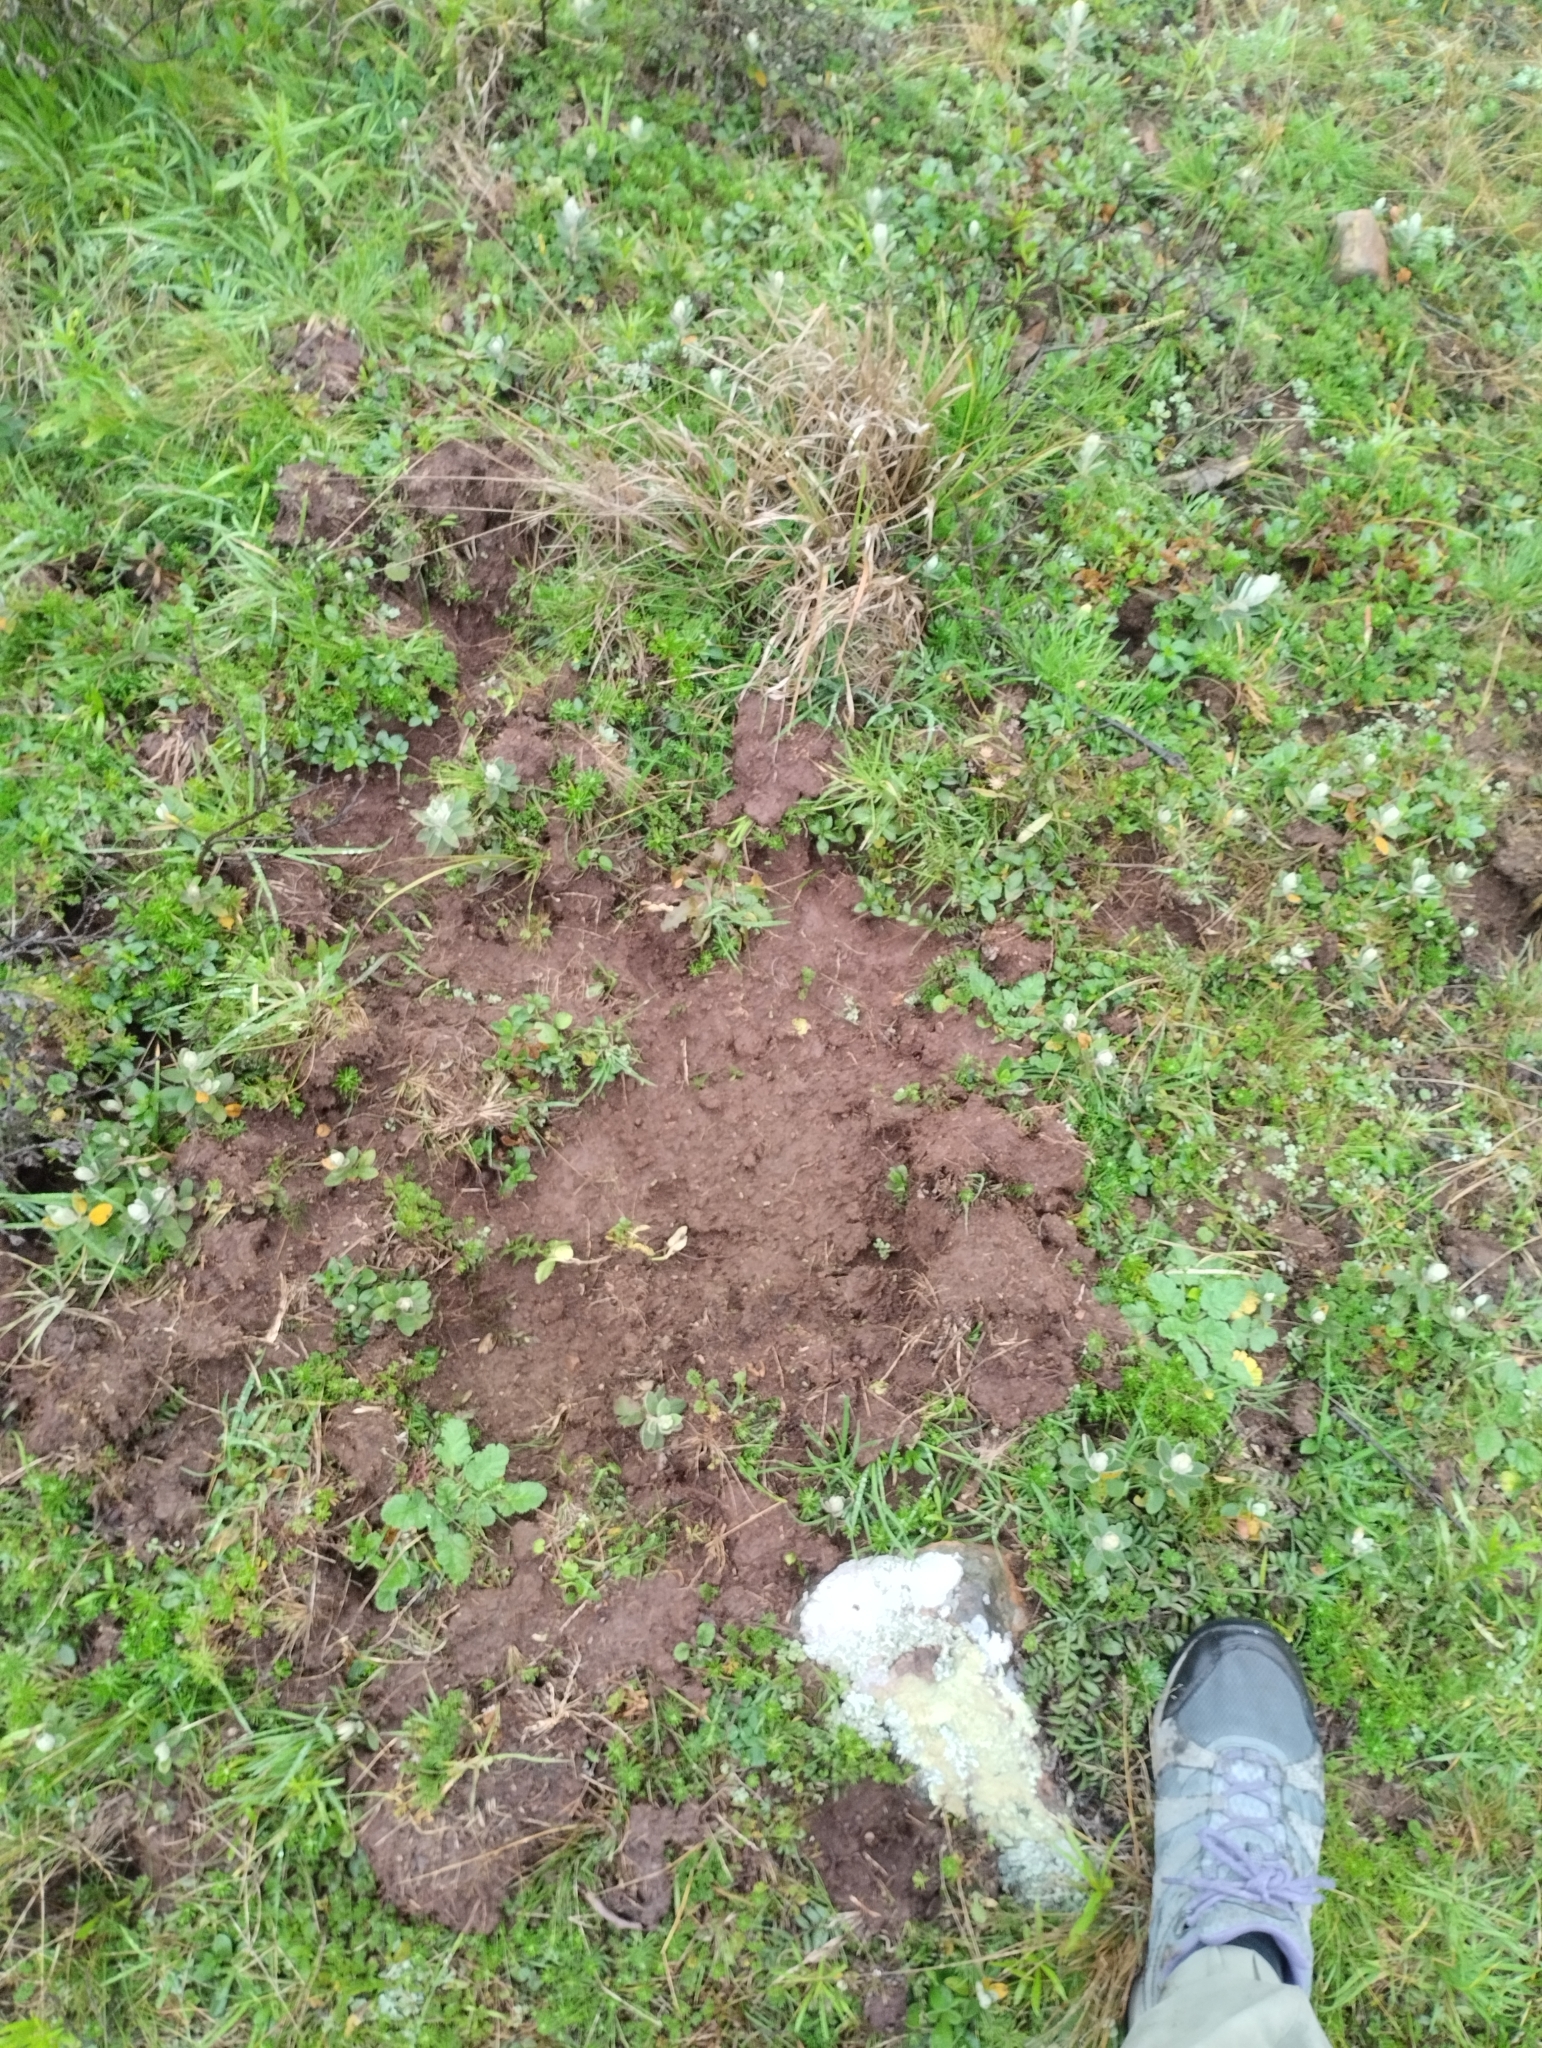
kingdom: Animalia
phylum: Chordata
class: Mammalia
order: Artiodactyla
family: Suidae
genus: Sus
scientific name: Sus scrofa
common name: Wild boar
